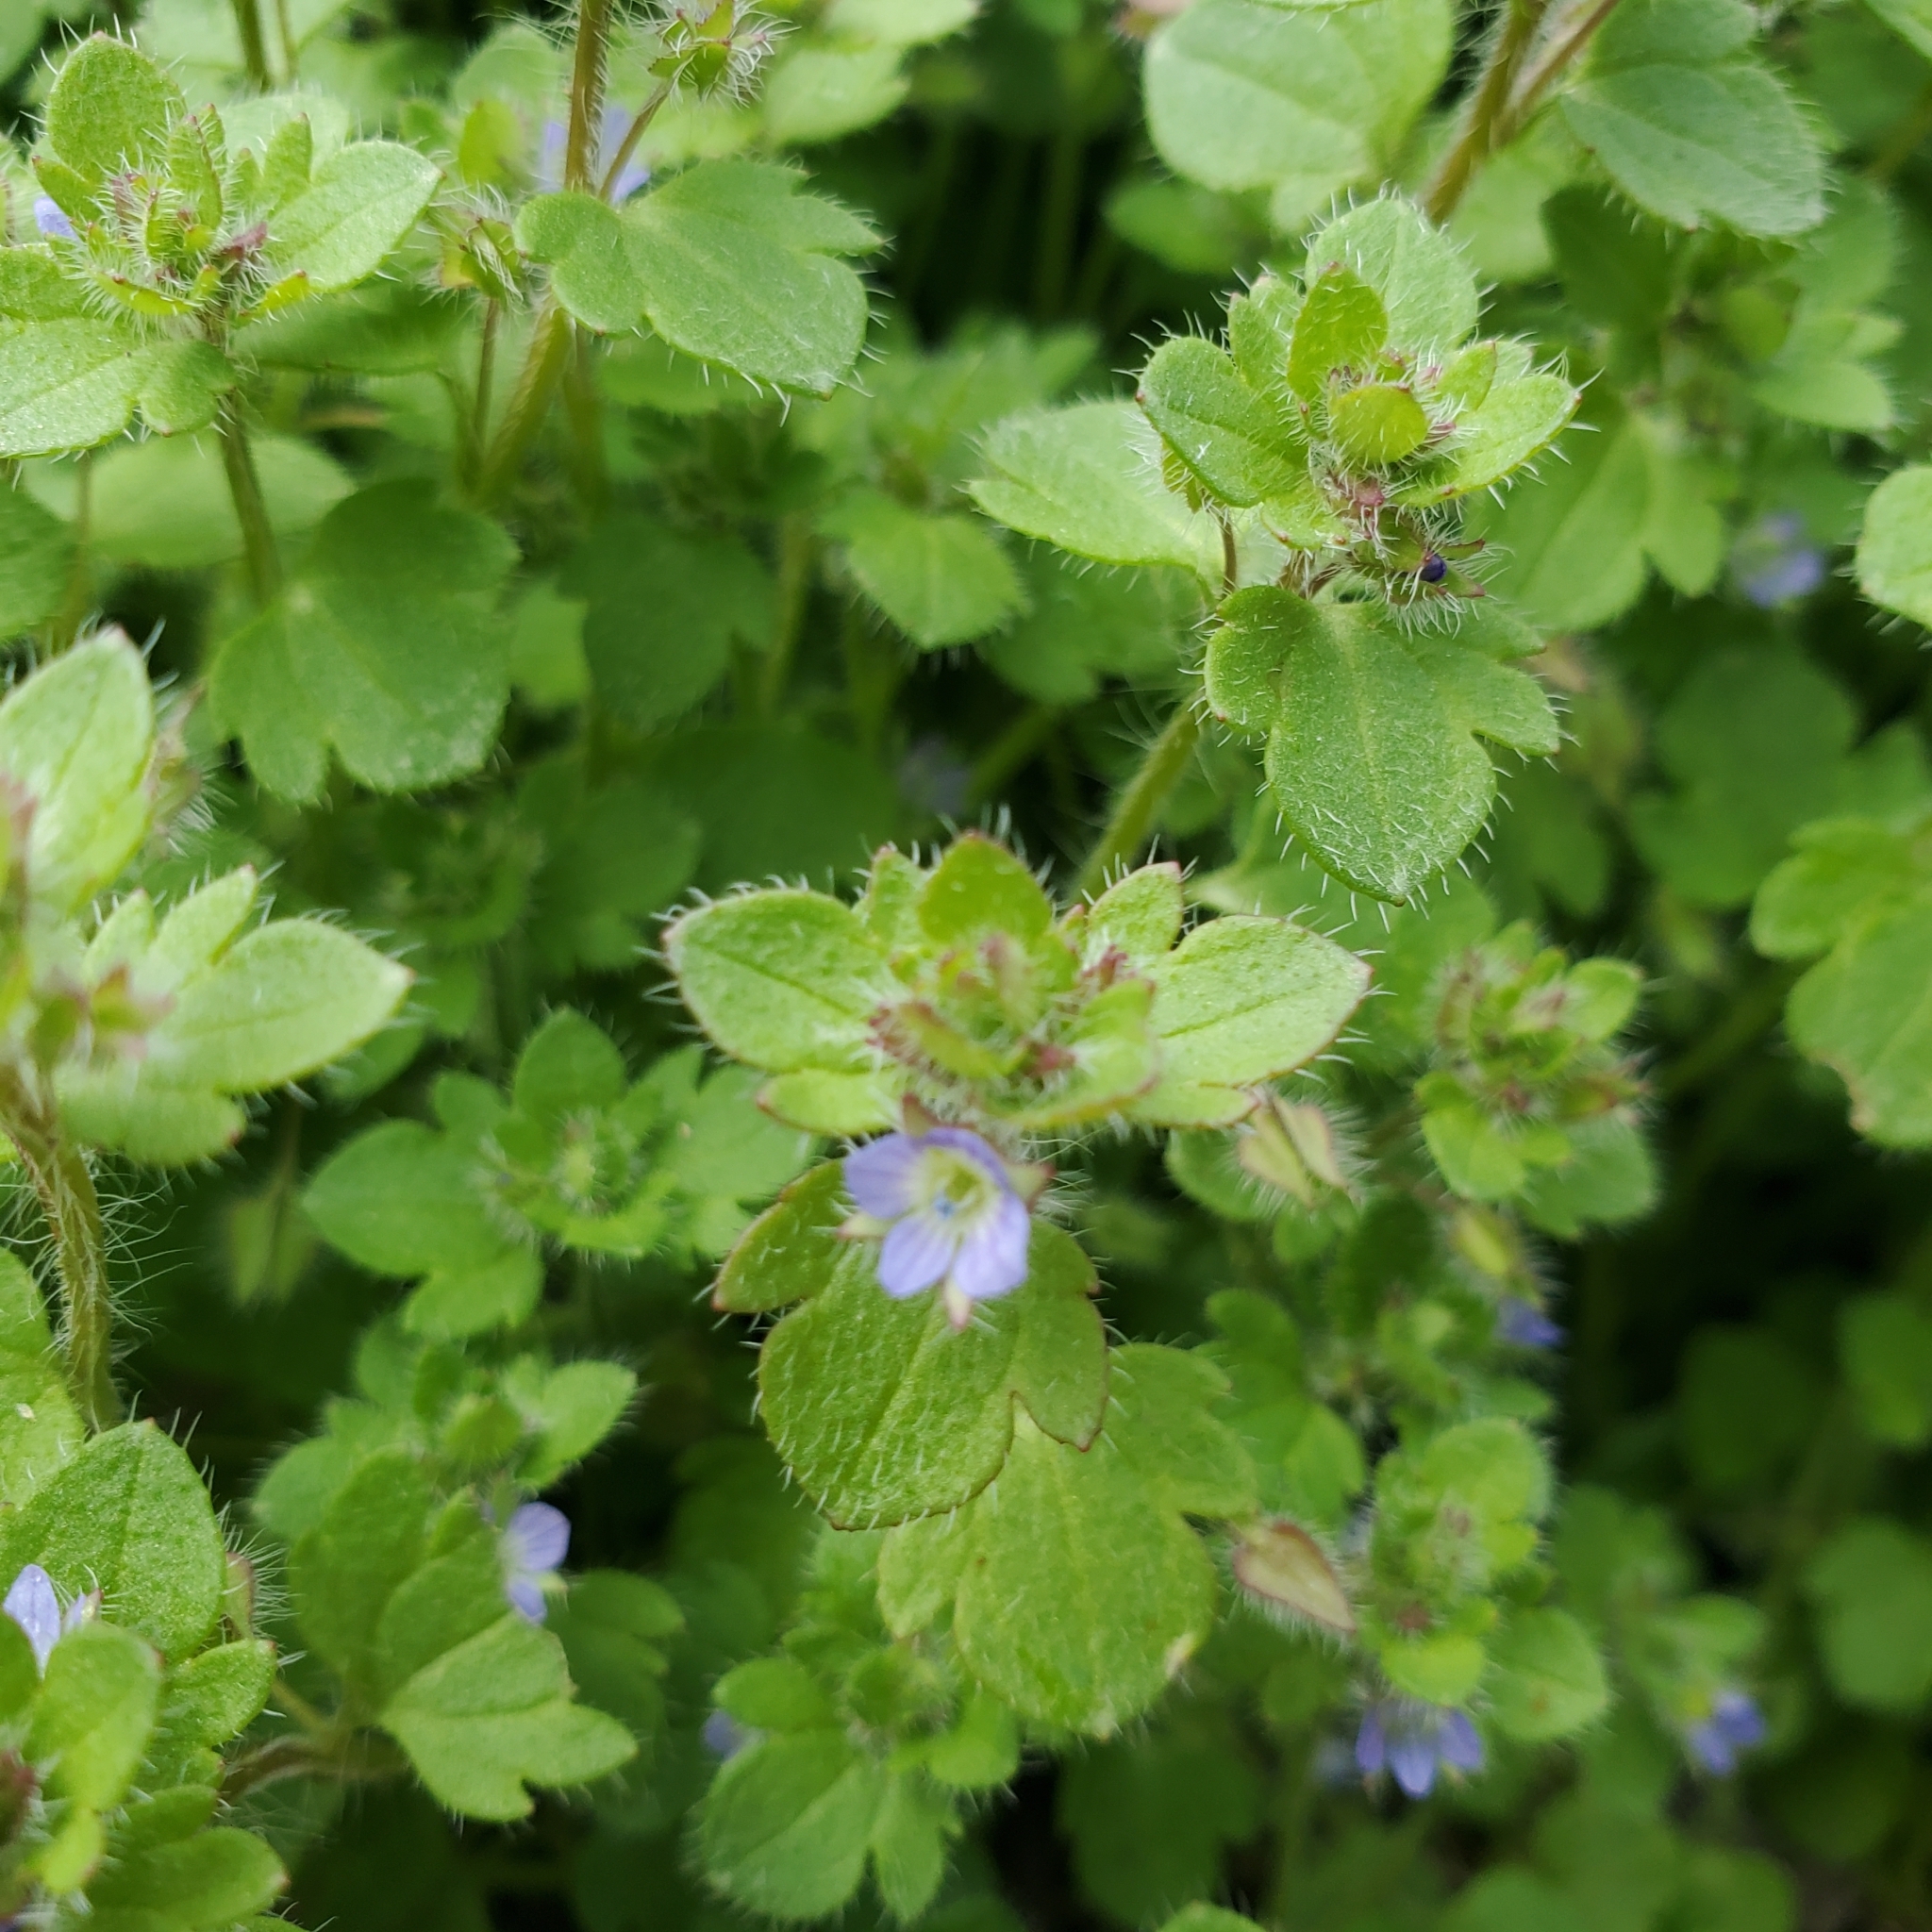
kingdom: Plantae
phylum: Tracheophyta
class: Magnoliopsida
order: Lamiales
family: Plantaginaceae
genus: Veronica
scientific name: Veronica hederifolia
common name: Ivy-leaved speedwell
